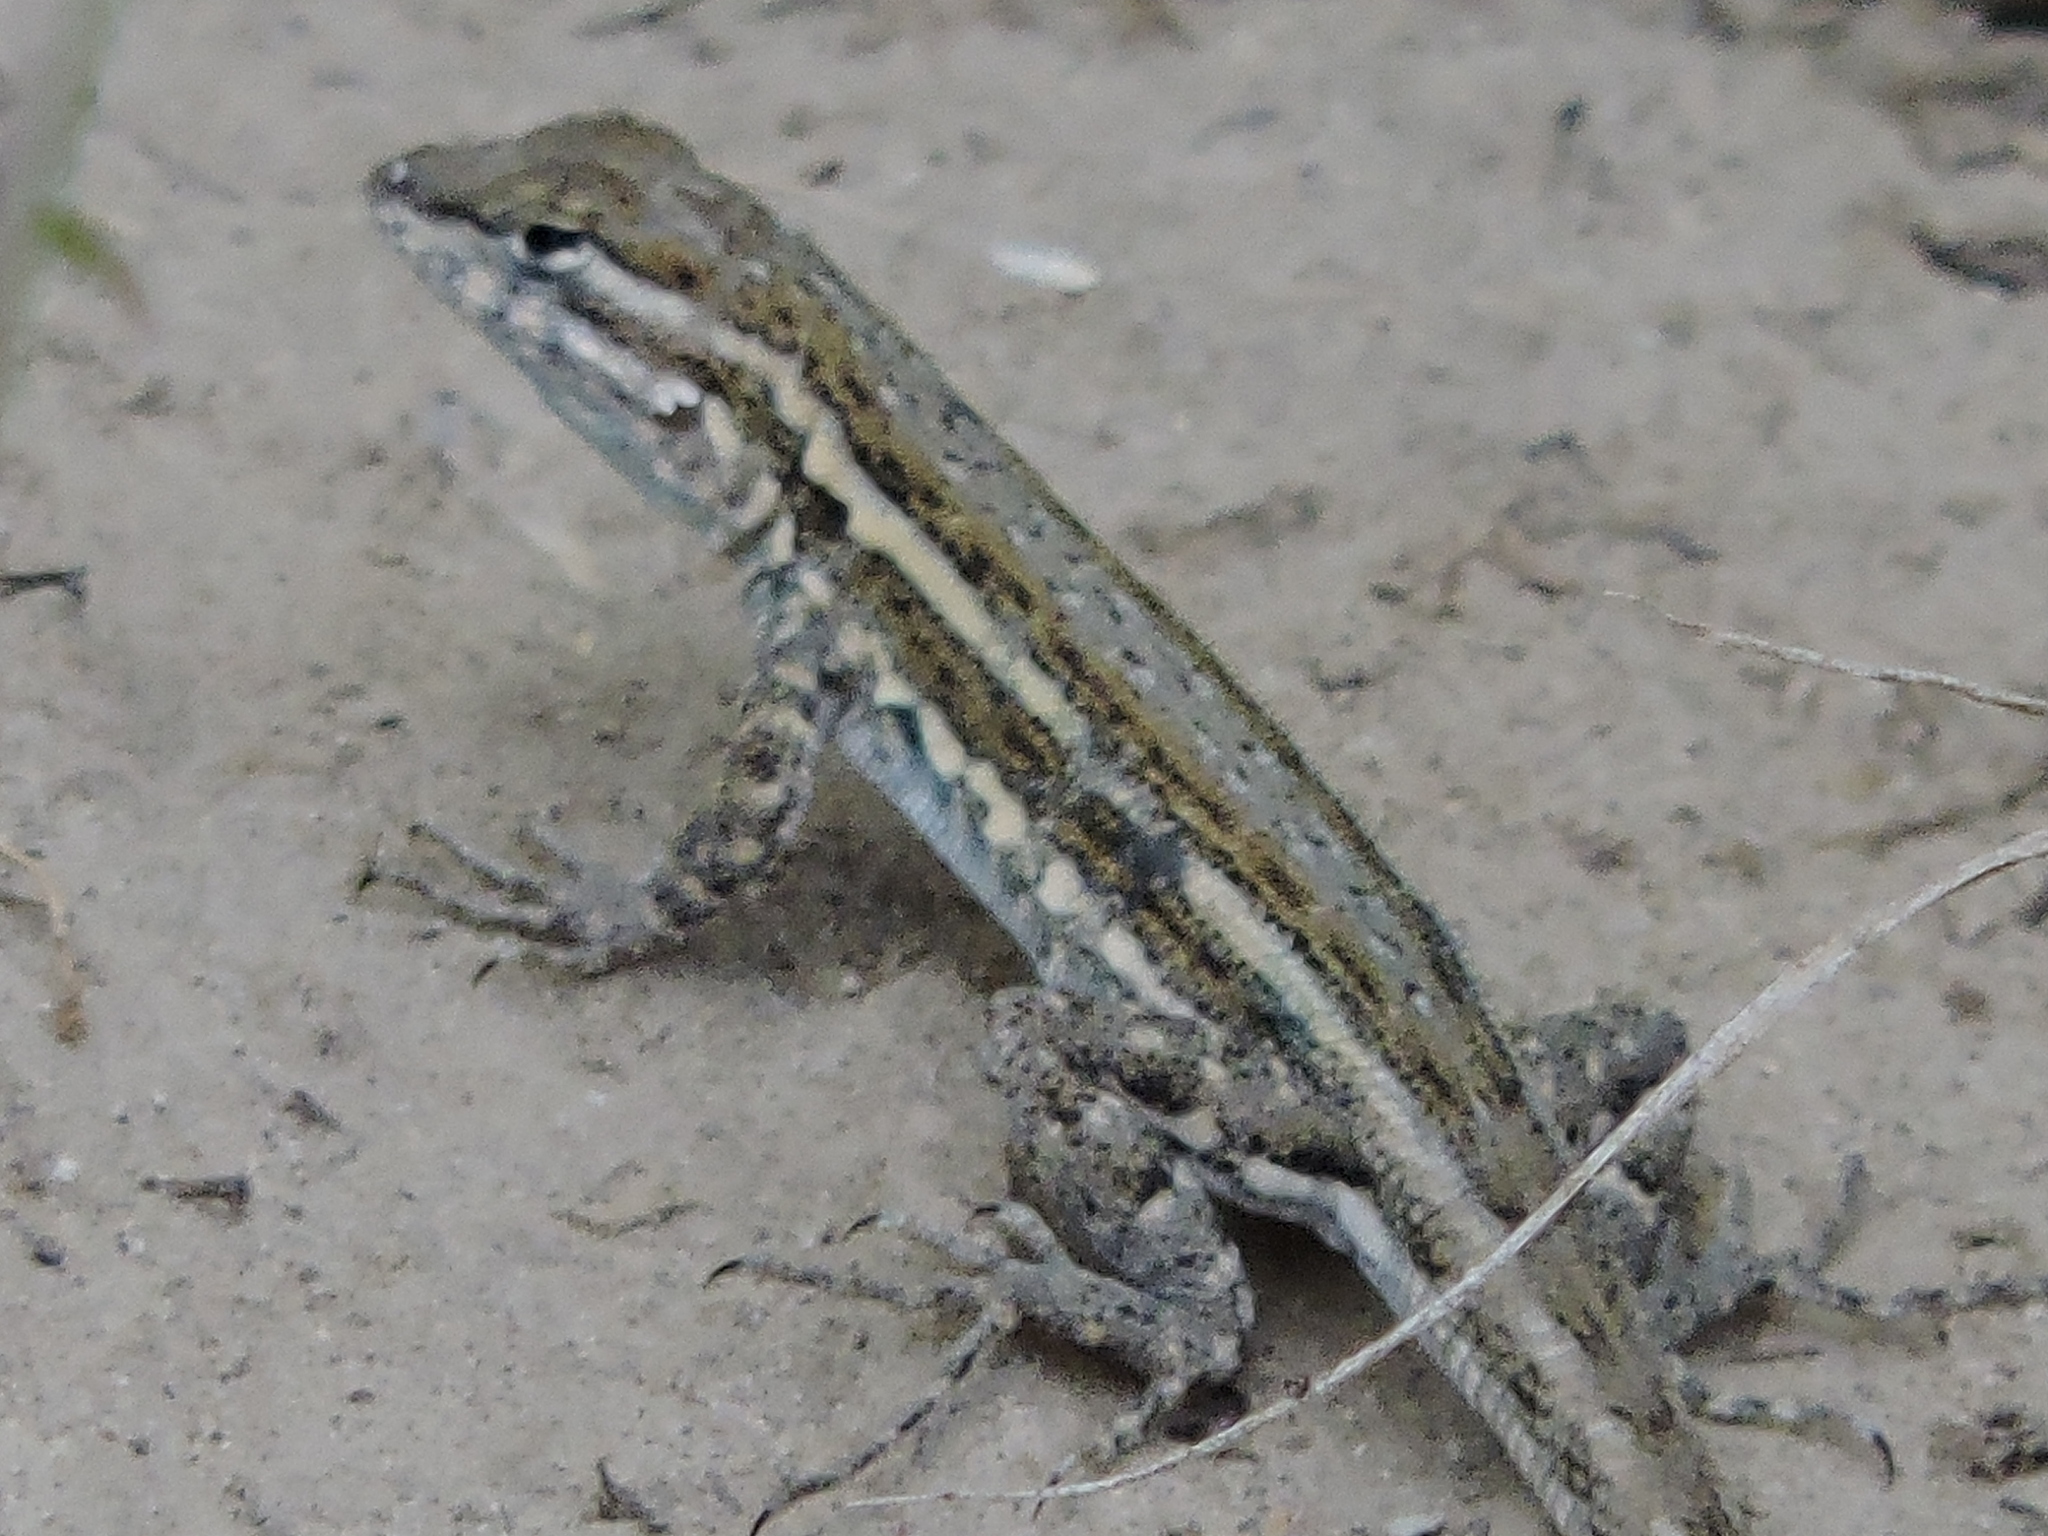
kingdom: Animalia
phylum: Chordata
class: Squamata
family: Phrynosomatidae
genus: Uta
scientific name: Uta stansburiana
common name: Side-blotched lizard
